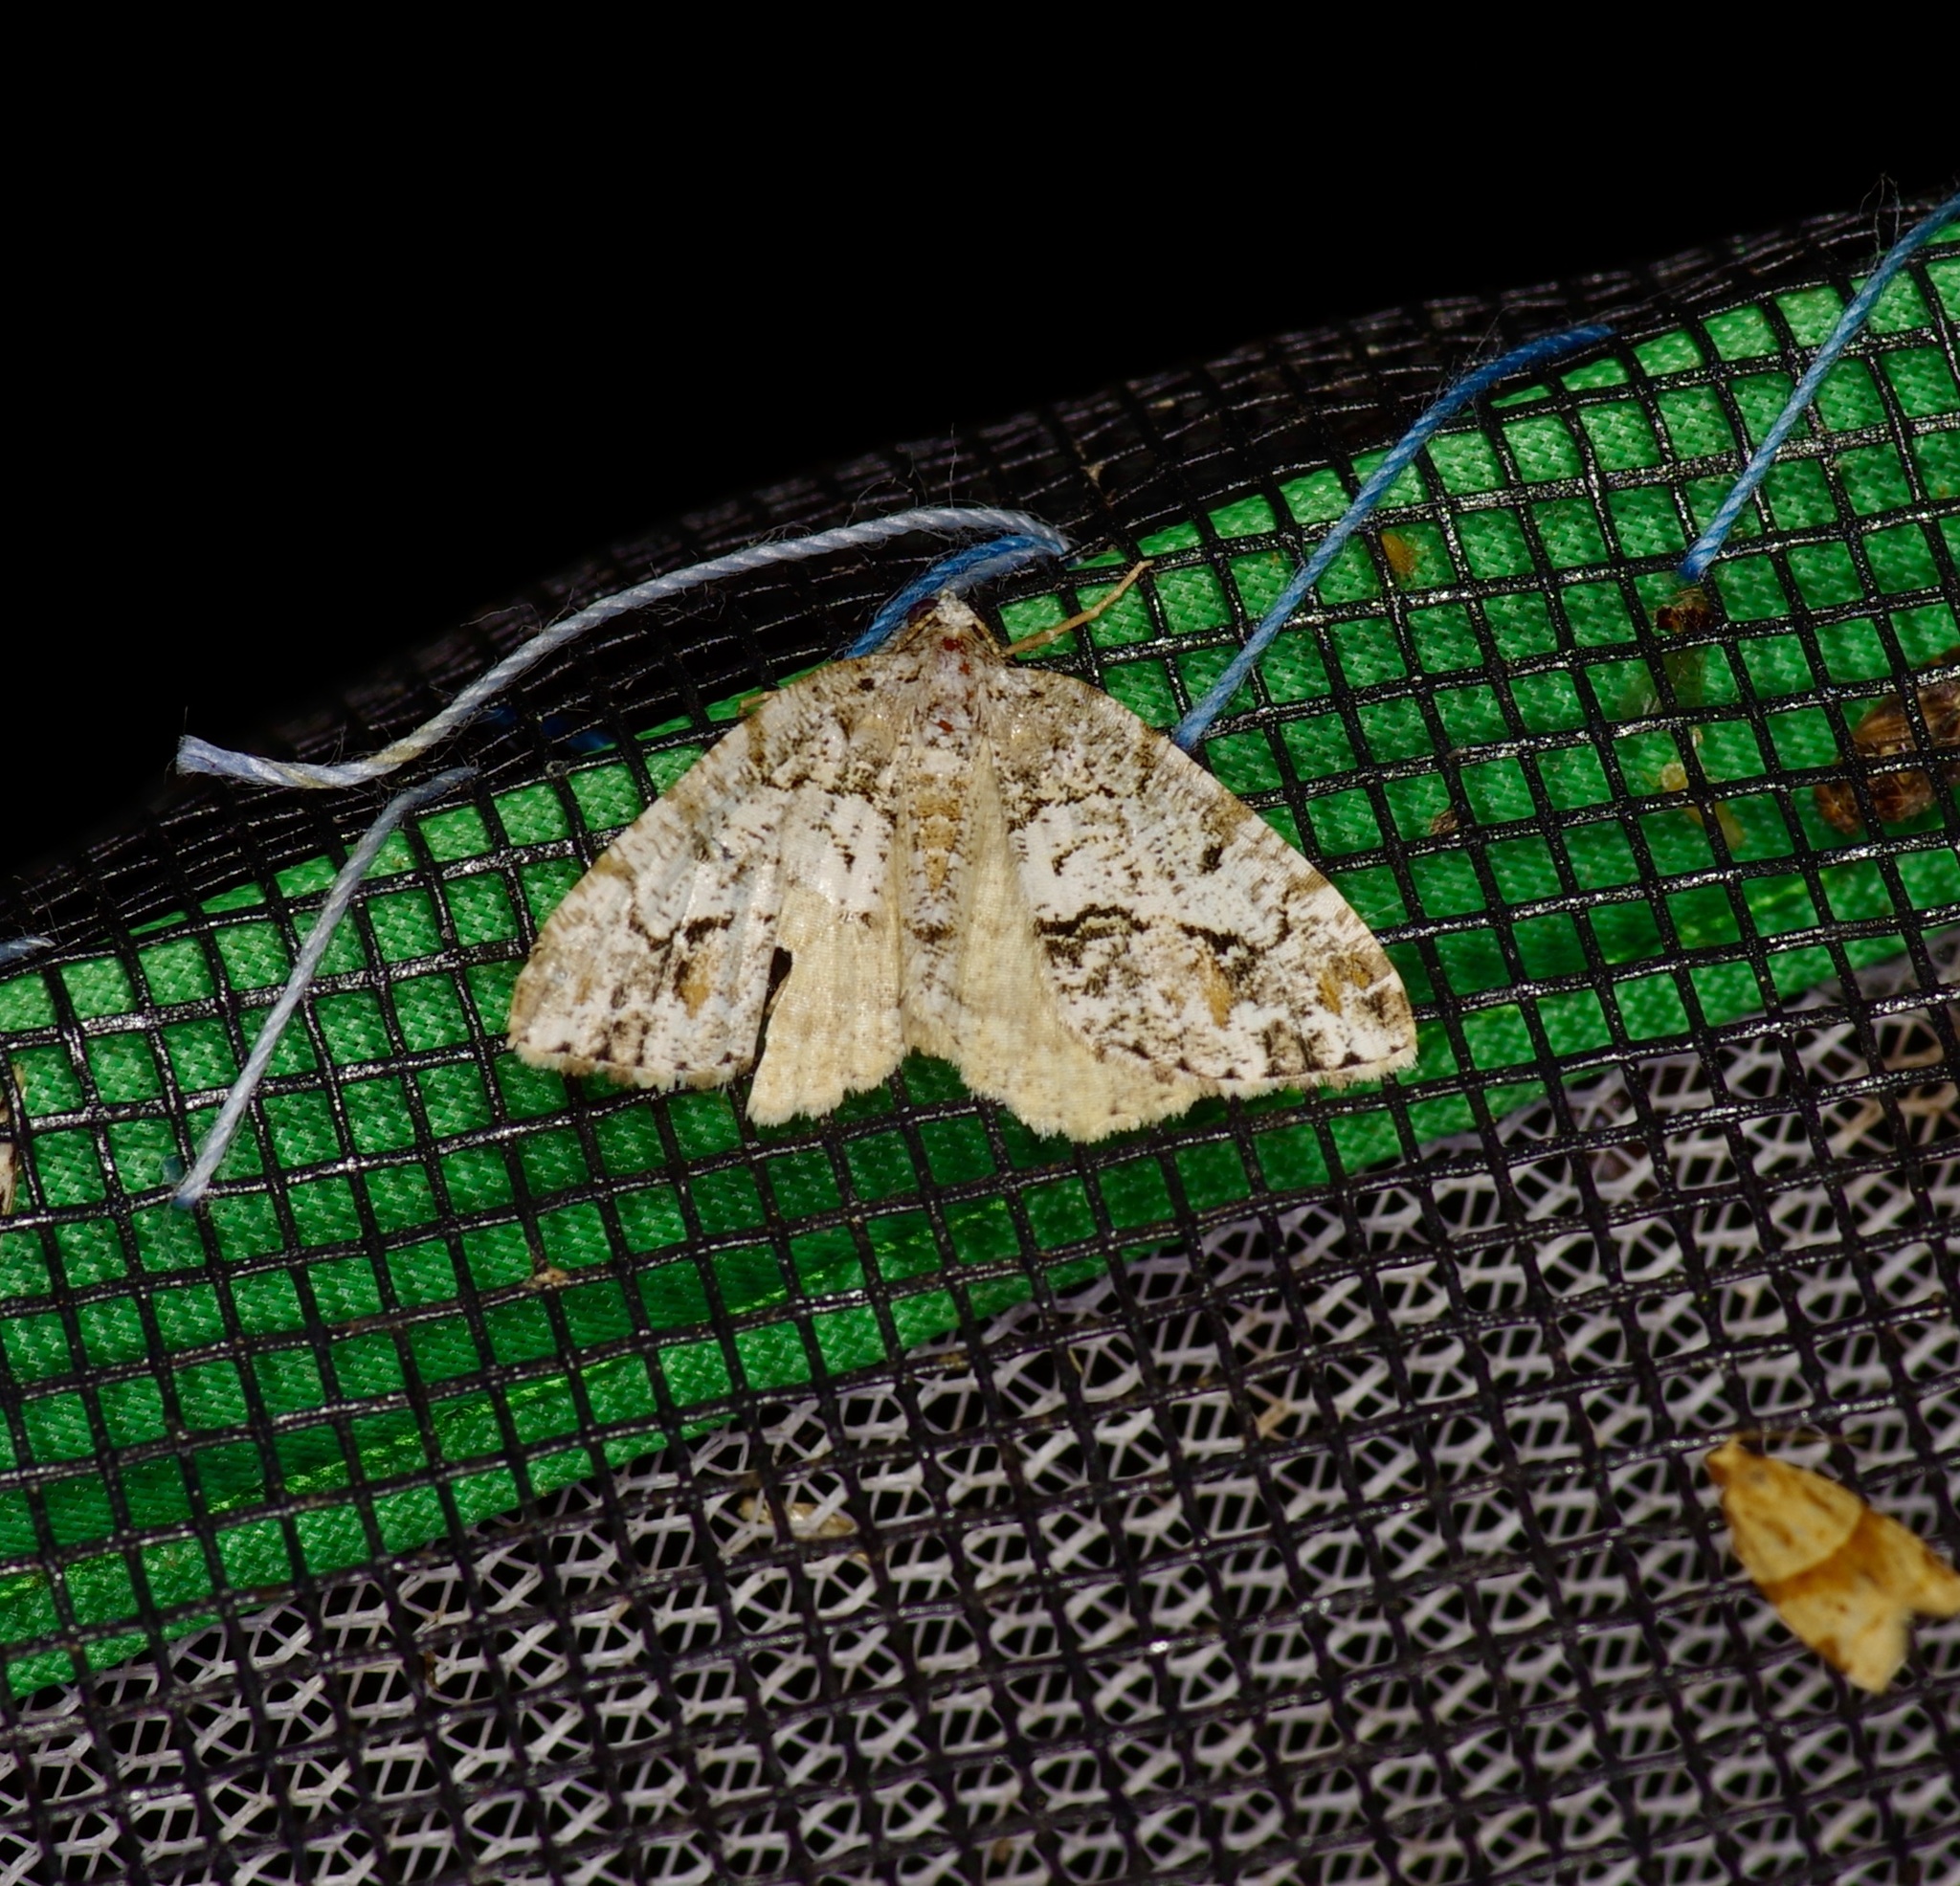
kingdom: Animalia
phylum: Arthropoda
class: Insecta
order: Lepidoptera
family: Geometridae
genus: Macaria
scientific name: Macaria graphidaria
